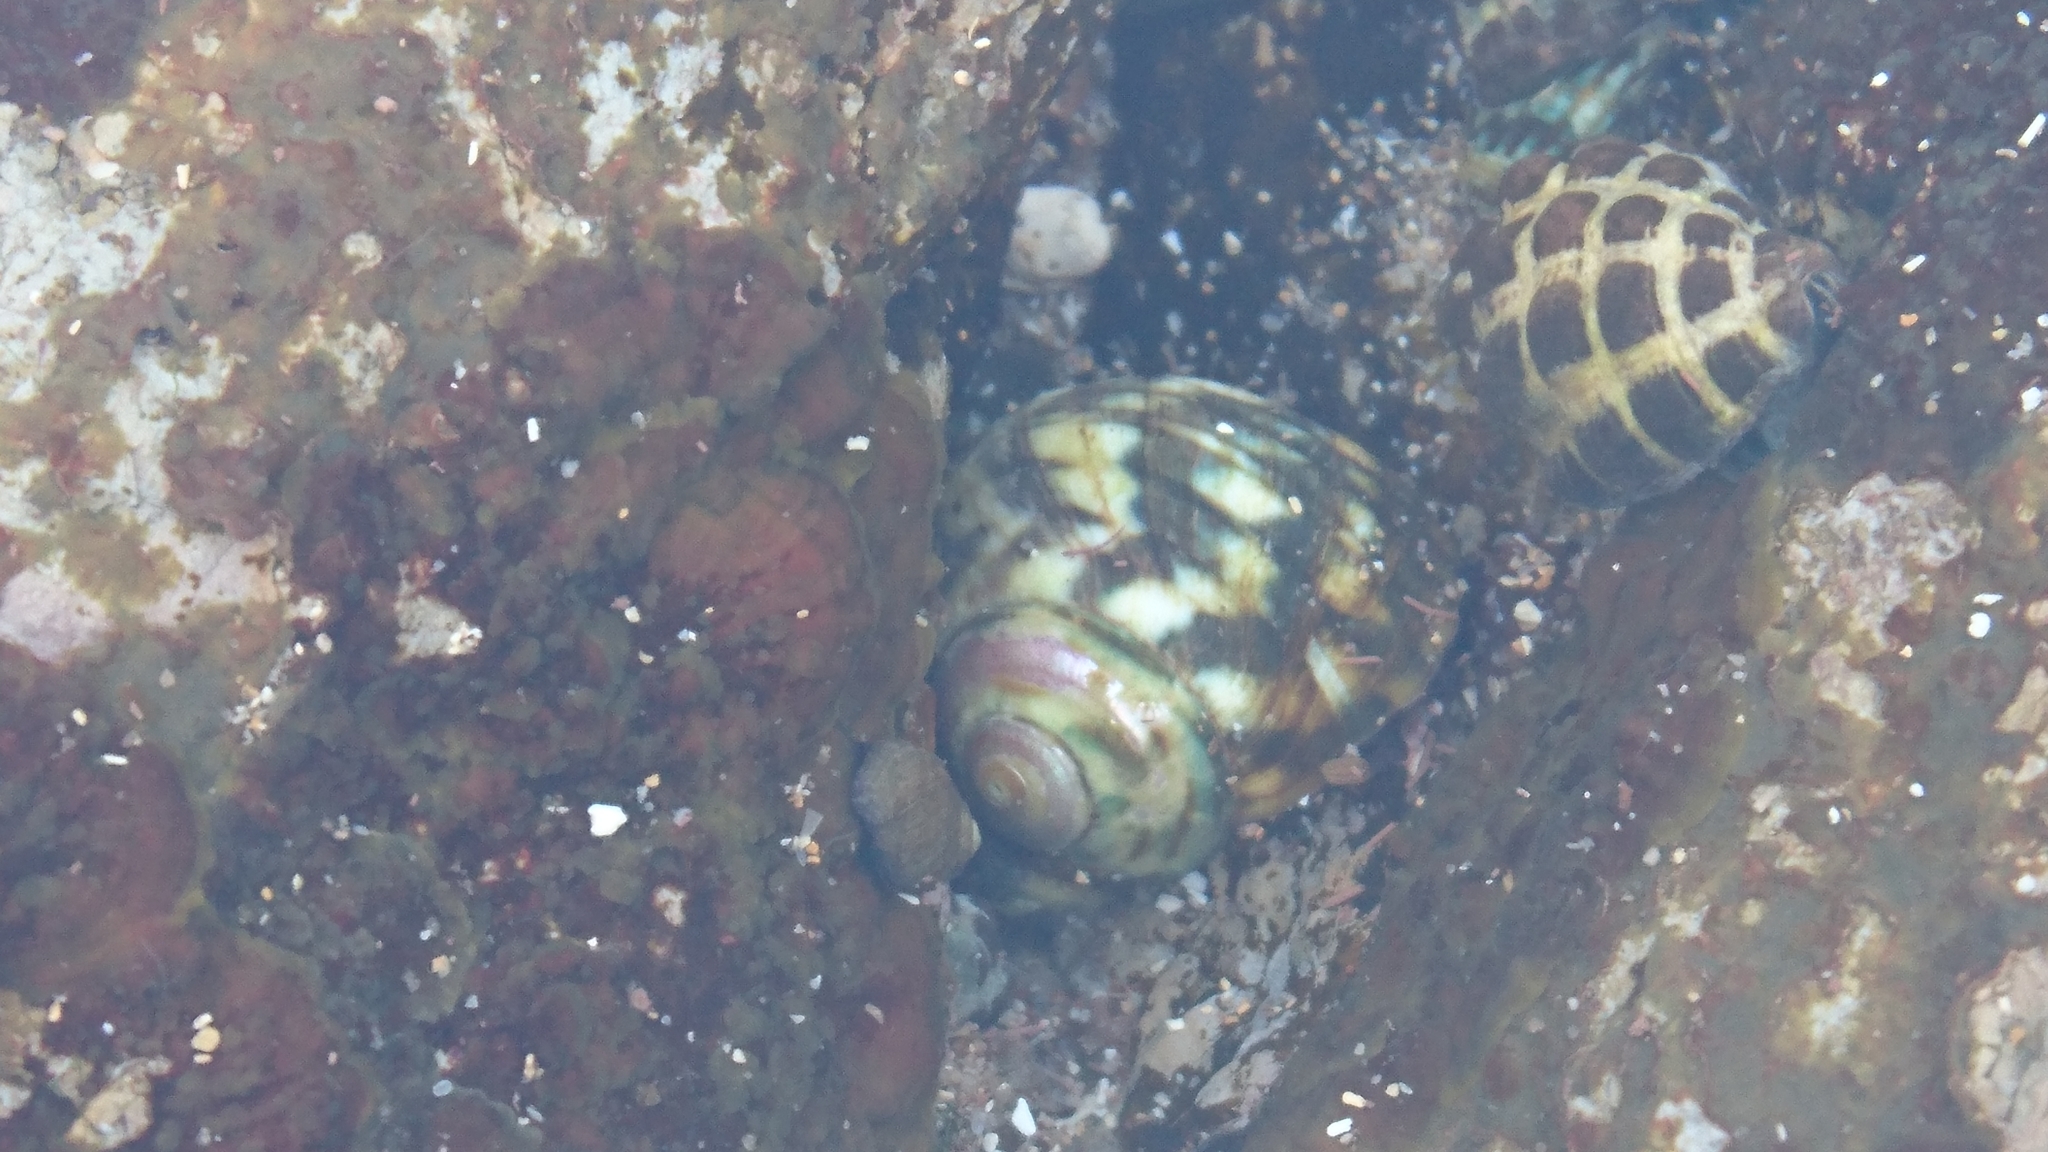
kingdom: Animalia
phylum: Mollusca
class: Gastropoda
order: Trochida
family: Turbinidae
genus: Lunella
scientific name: Lunella undulata
